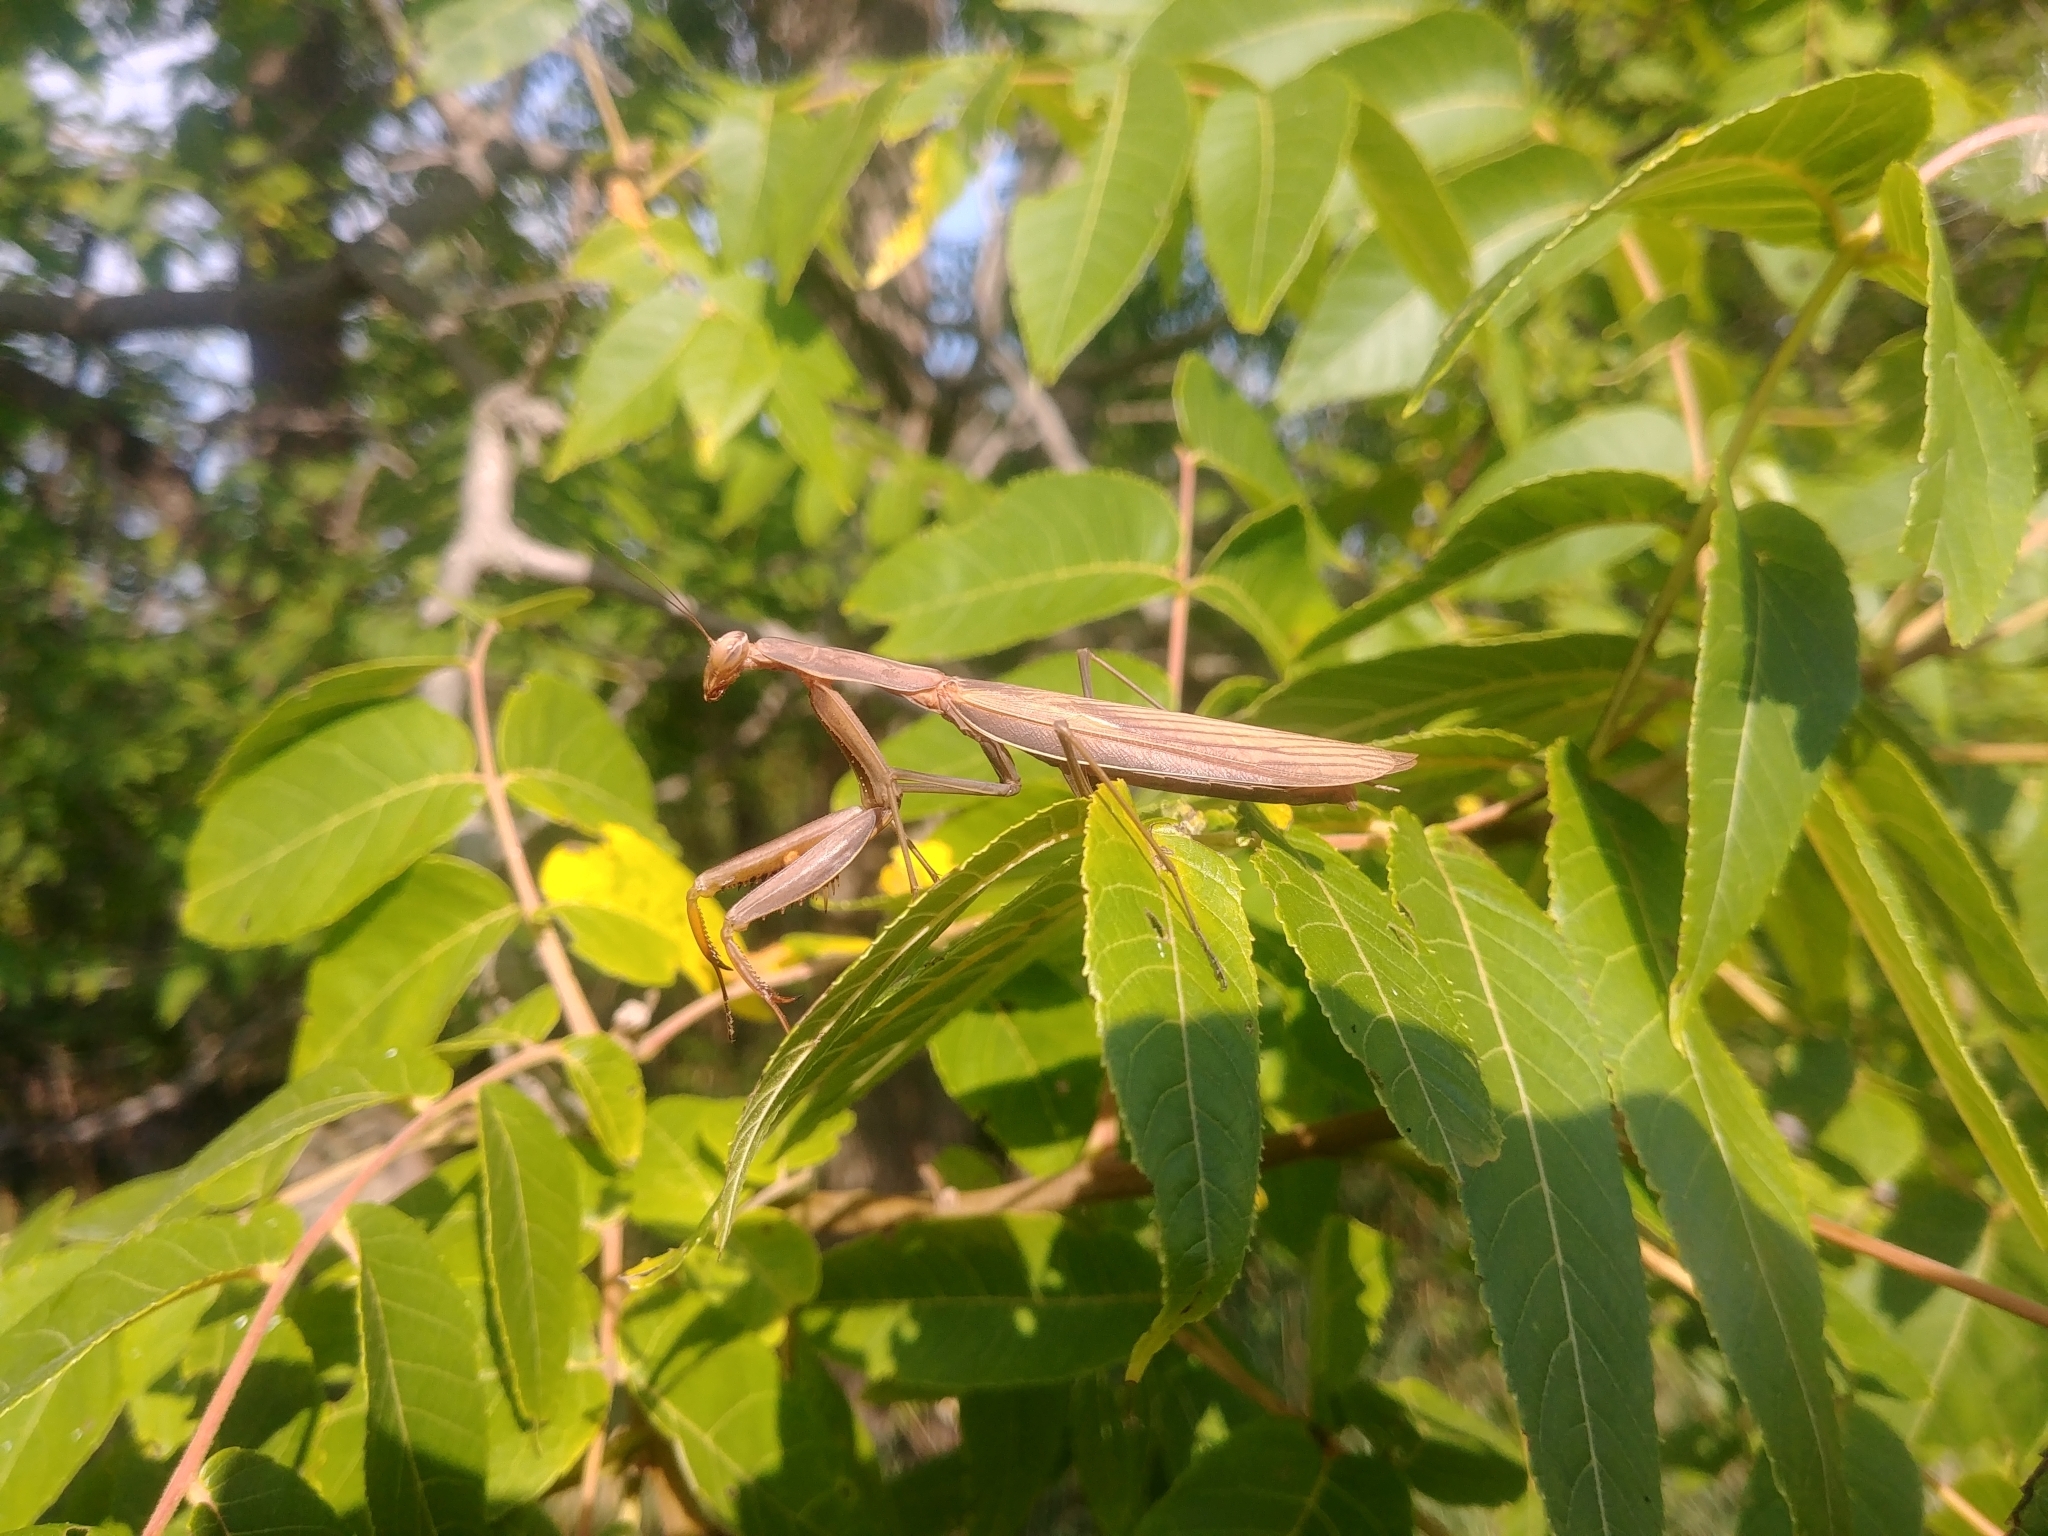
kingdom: Animalia
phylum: Arthropoda
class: Insecta
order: Mantodea
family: Mantidae
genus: Mantis
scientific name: Mantis religiosa
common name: Praying mantis
